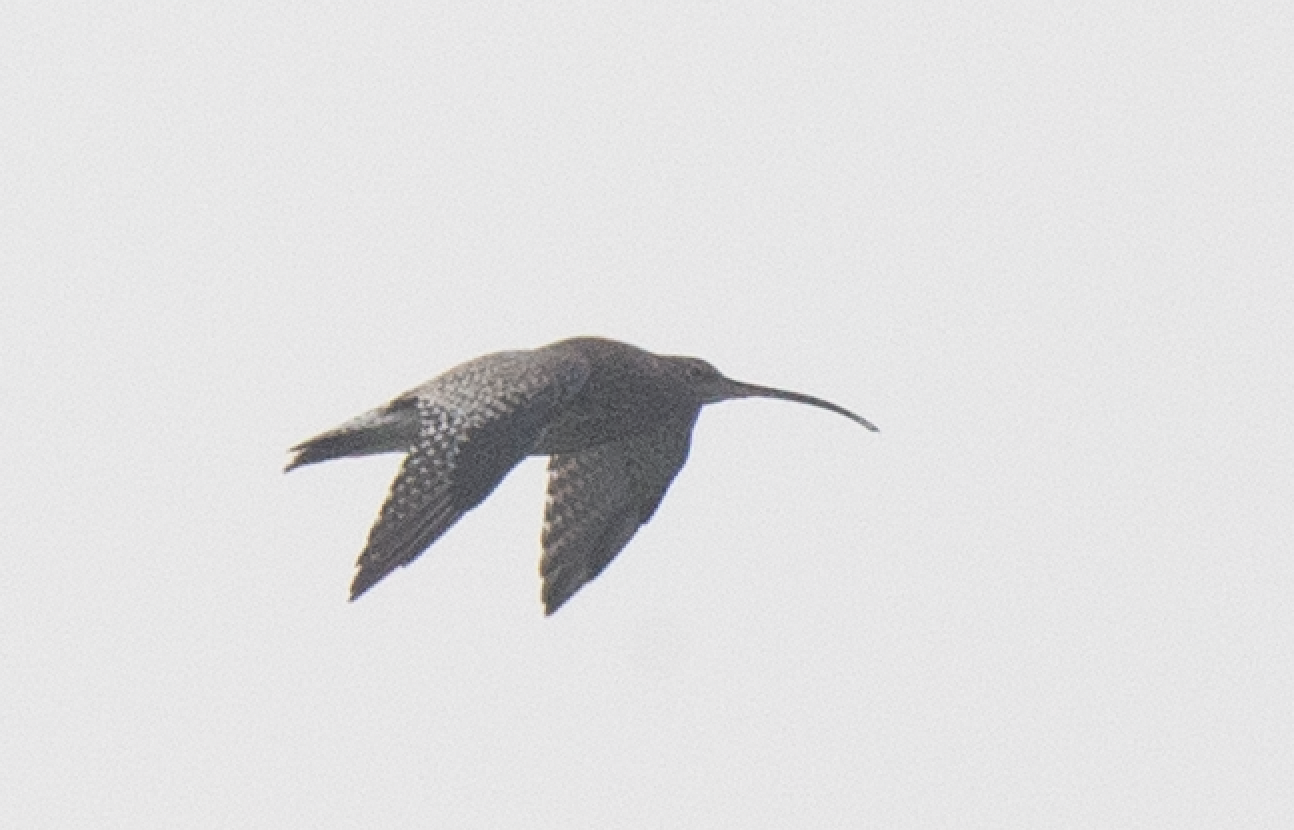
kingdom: Animalia
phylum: Chordata
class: Aves
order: Charadriiformes
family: Scolopacidae
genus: Numenius
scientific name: Numenius arquata
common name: Eurasian curlew
